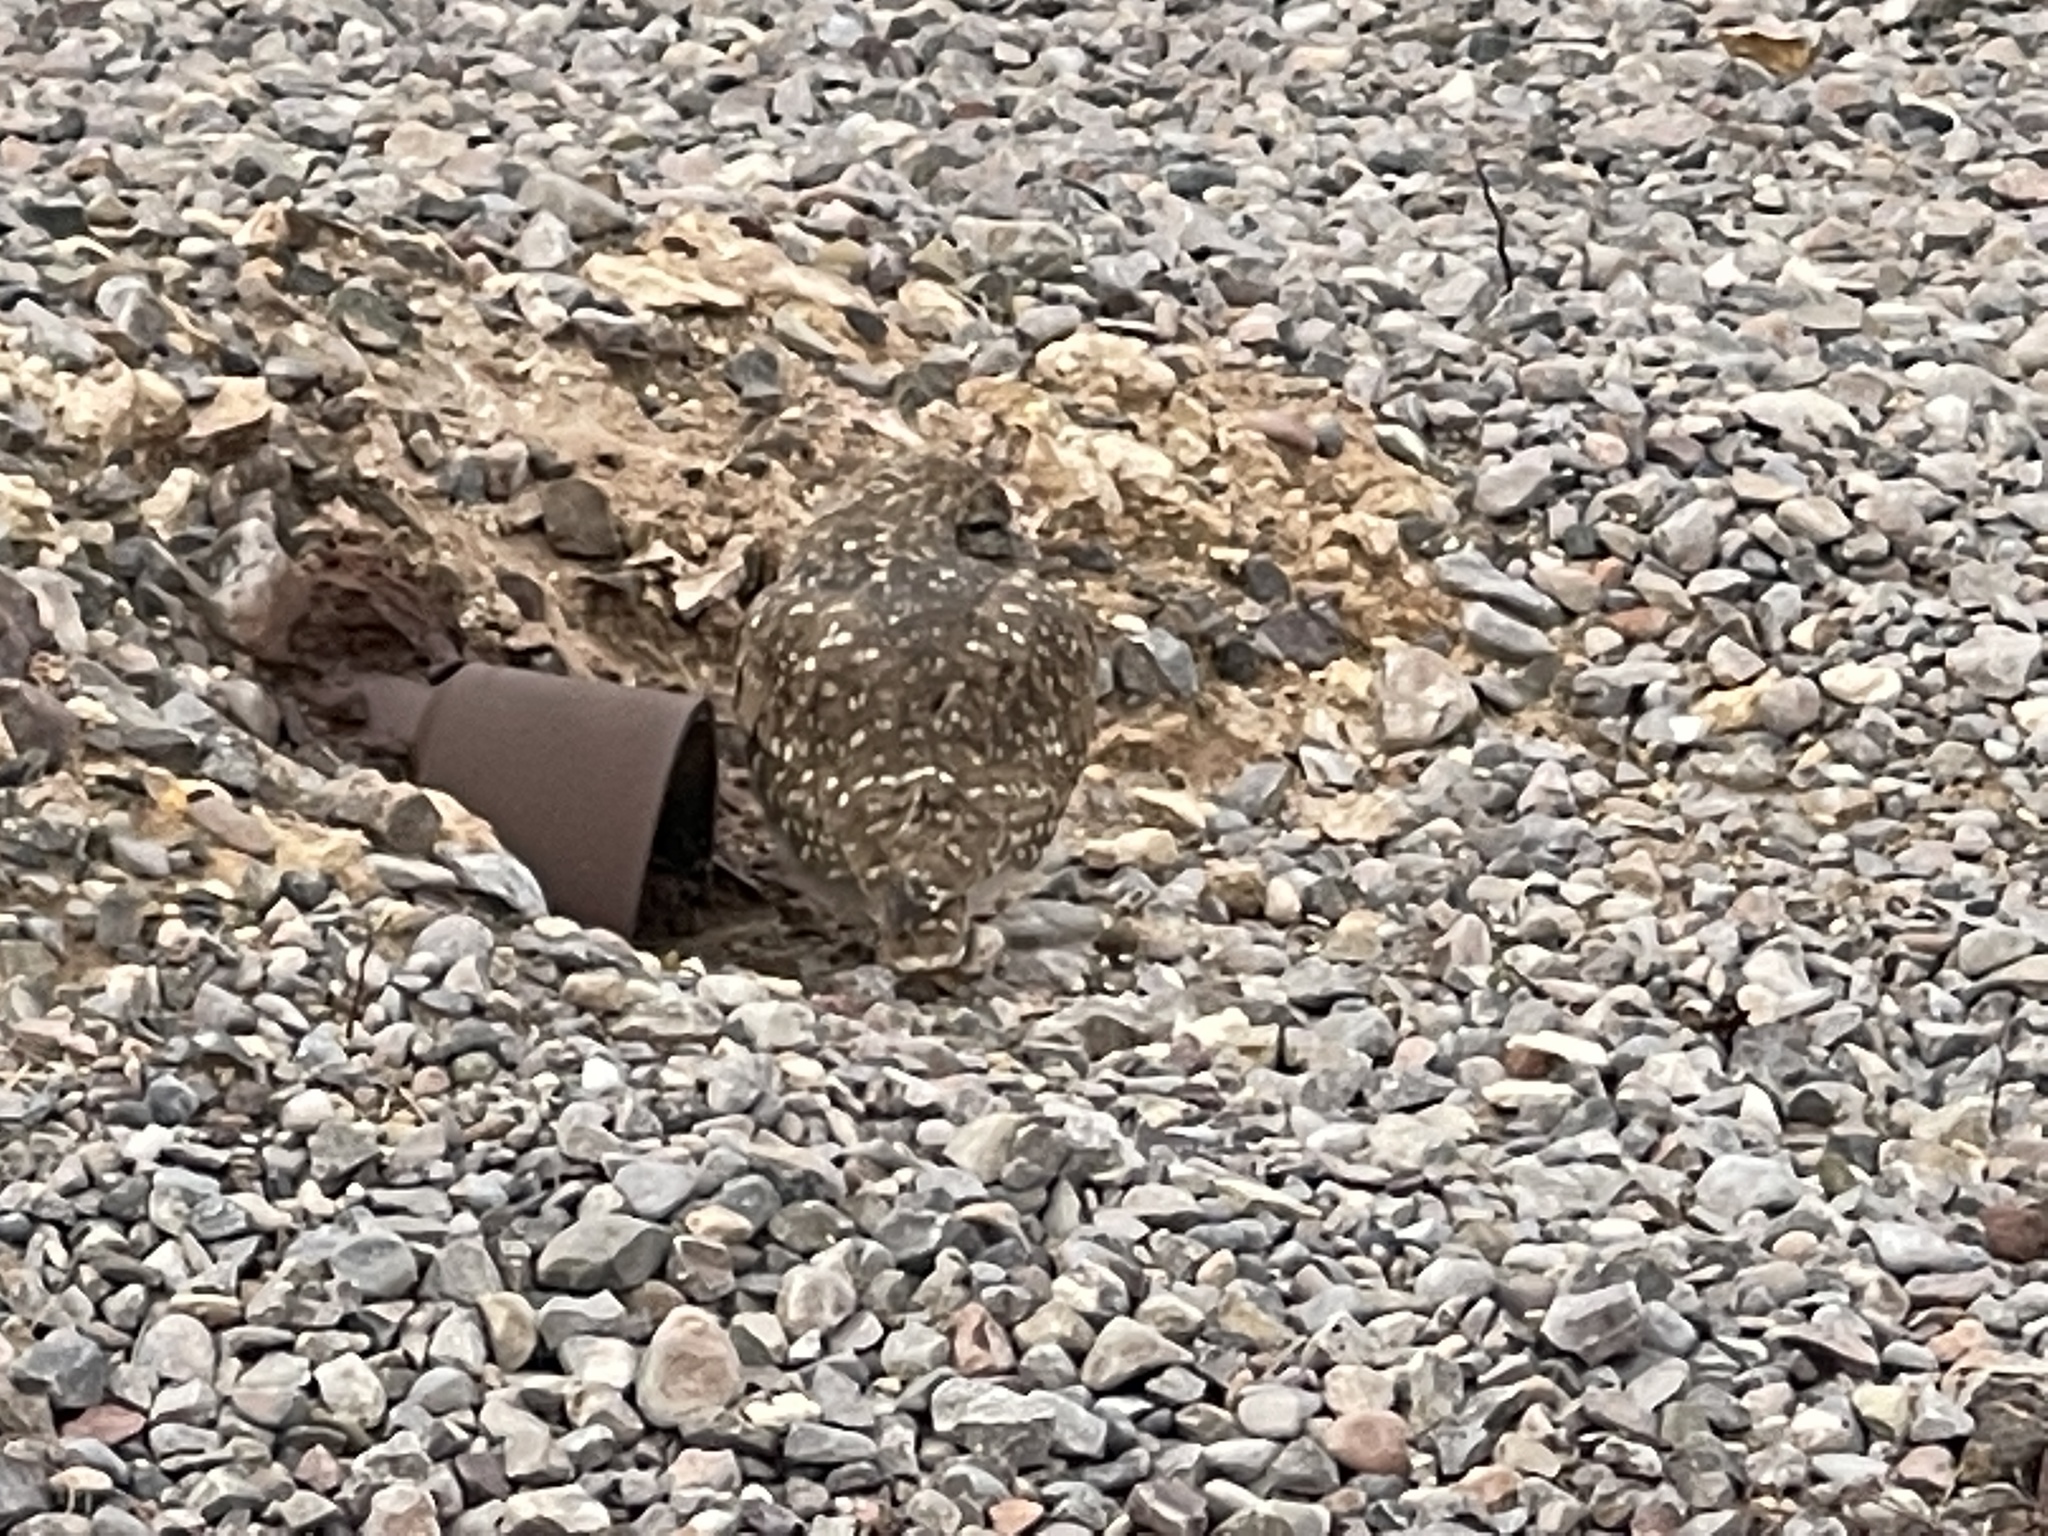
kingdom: Animalia
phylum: Chordata
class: Aves
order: Strigiformes
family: Strigidae
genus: Athene
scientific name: Athene cunicularia
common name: Burrowing owl
